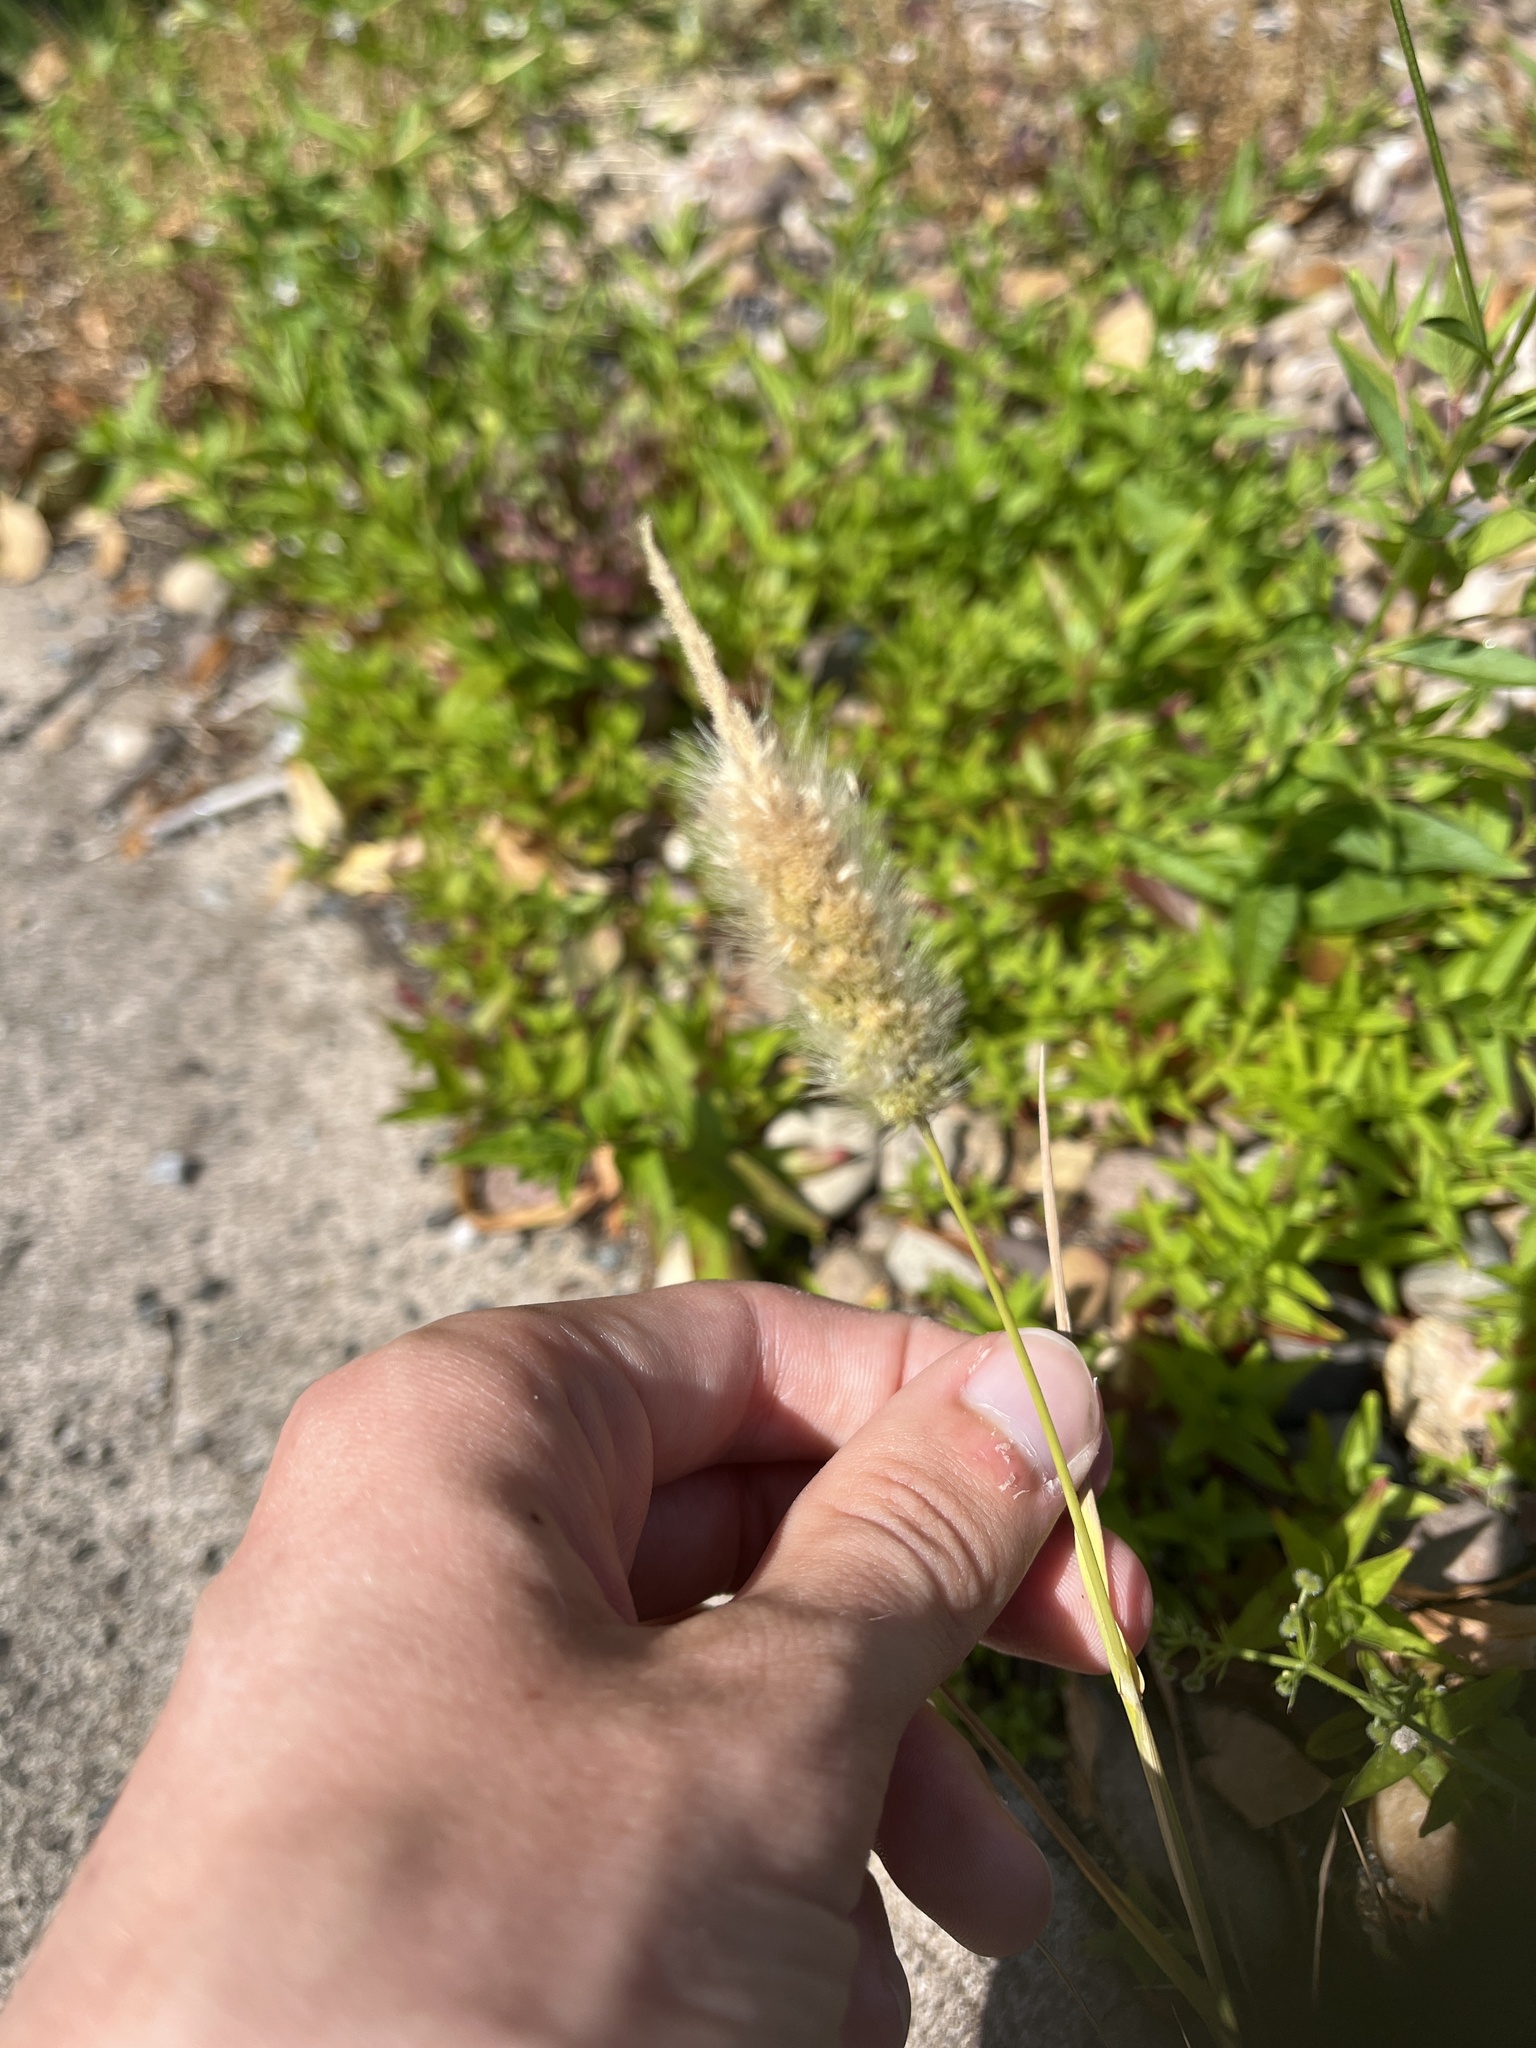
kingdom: Plantae
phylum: Tracheophyta
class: Liliopsida
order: Poales
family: Poaceae
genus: Polypogon
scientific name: Polypogon monspeliensis
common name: Annual rabbitsfoot grass
